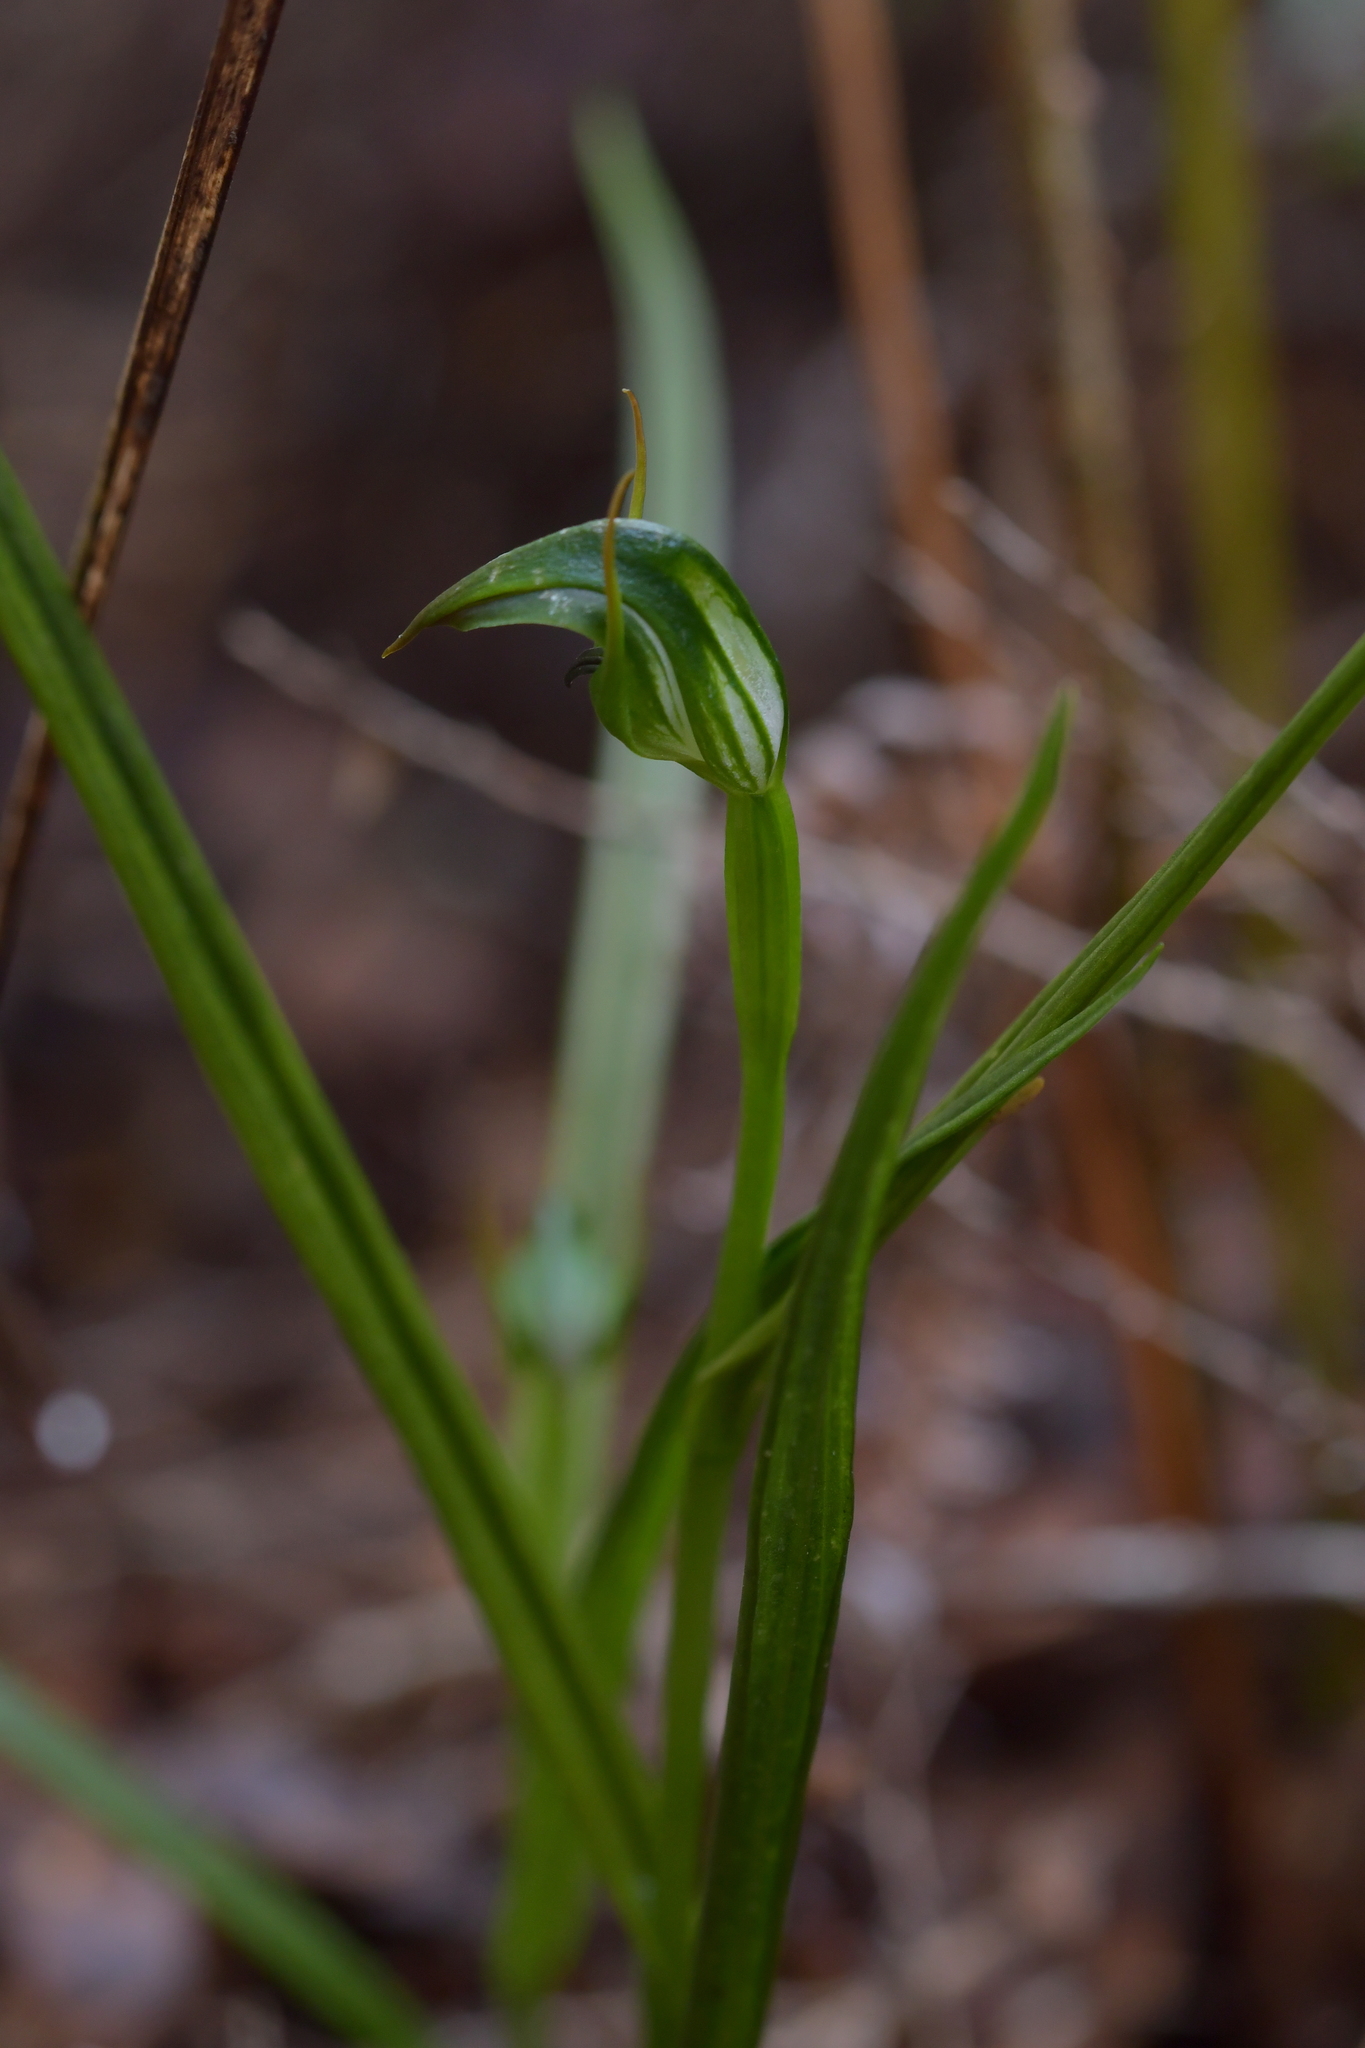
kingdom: Plantae
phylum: Tracheophyta
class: Liliopsida
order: Asparagales
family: Orchidaceae
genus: Pterostylis
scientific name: Pterostylis graminea
